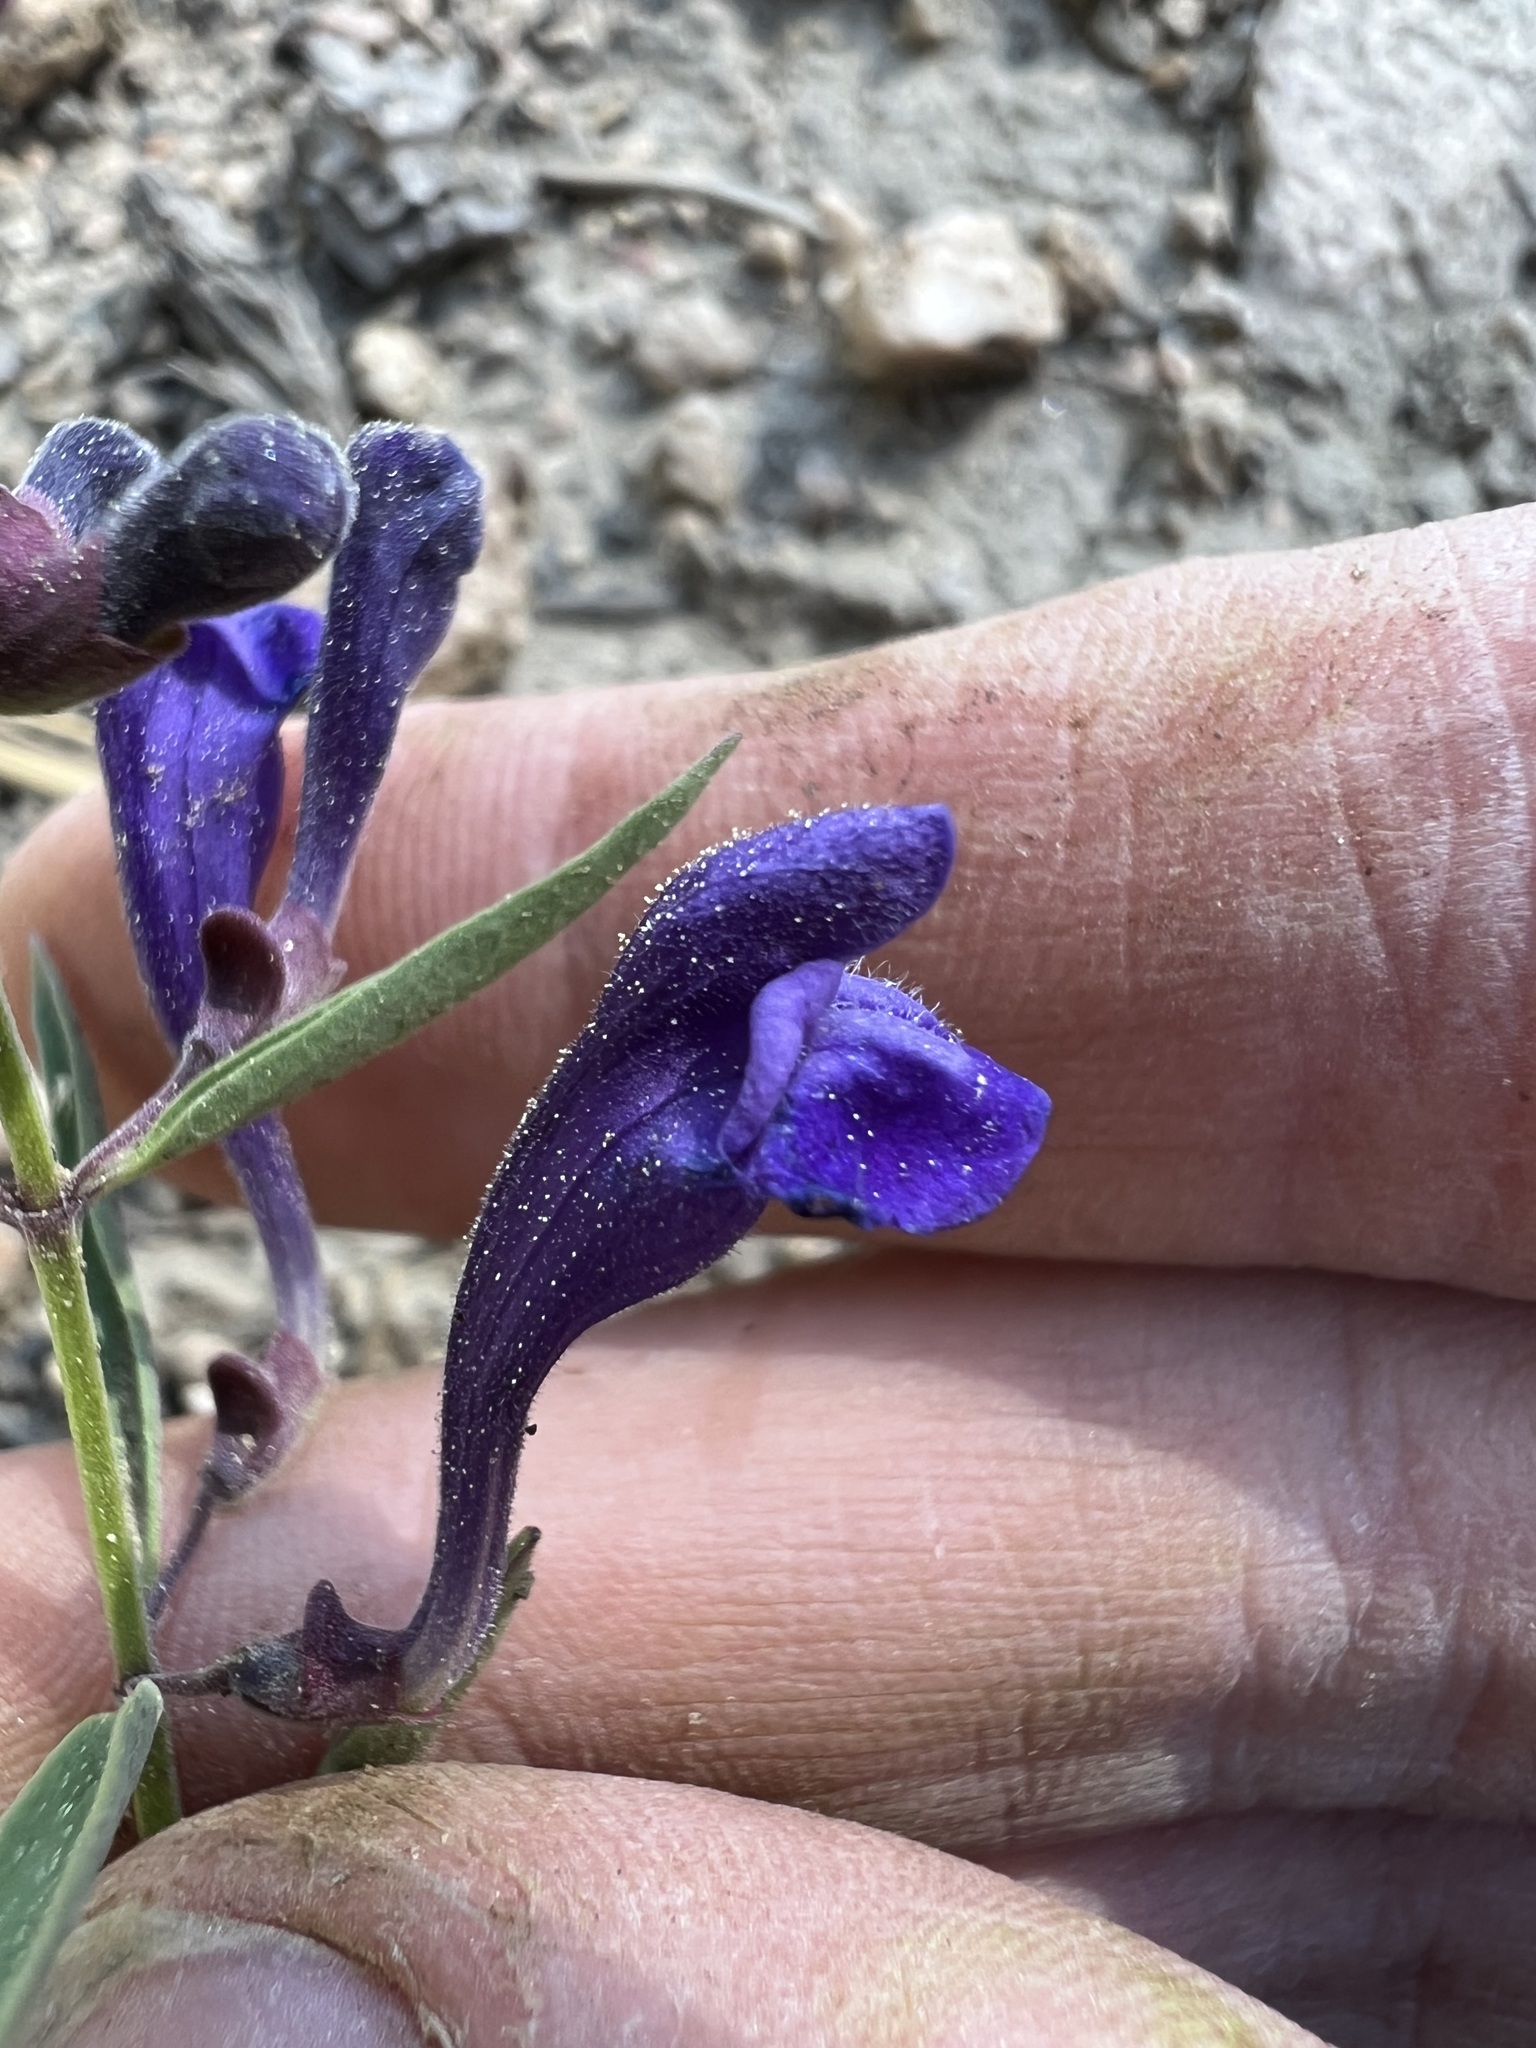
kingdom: Plantae
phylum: Tracheophyta
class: Magnoliopsida
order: Lamiales
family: Lamiaceae
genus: Scutellaria
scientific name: Scutellaria siphocampyloides
